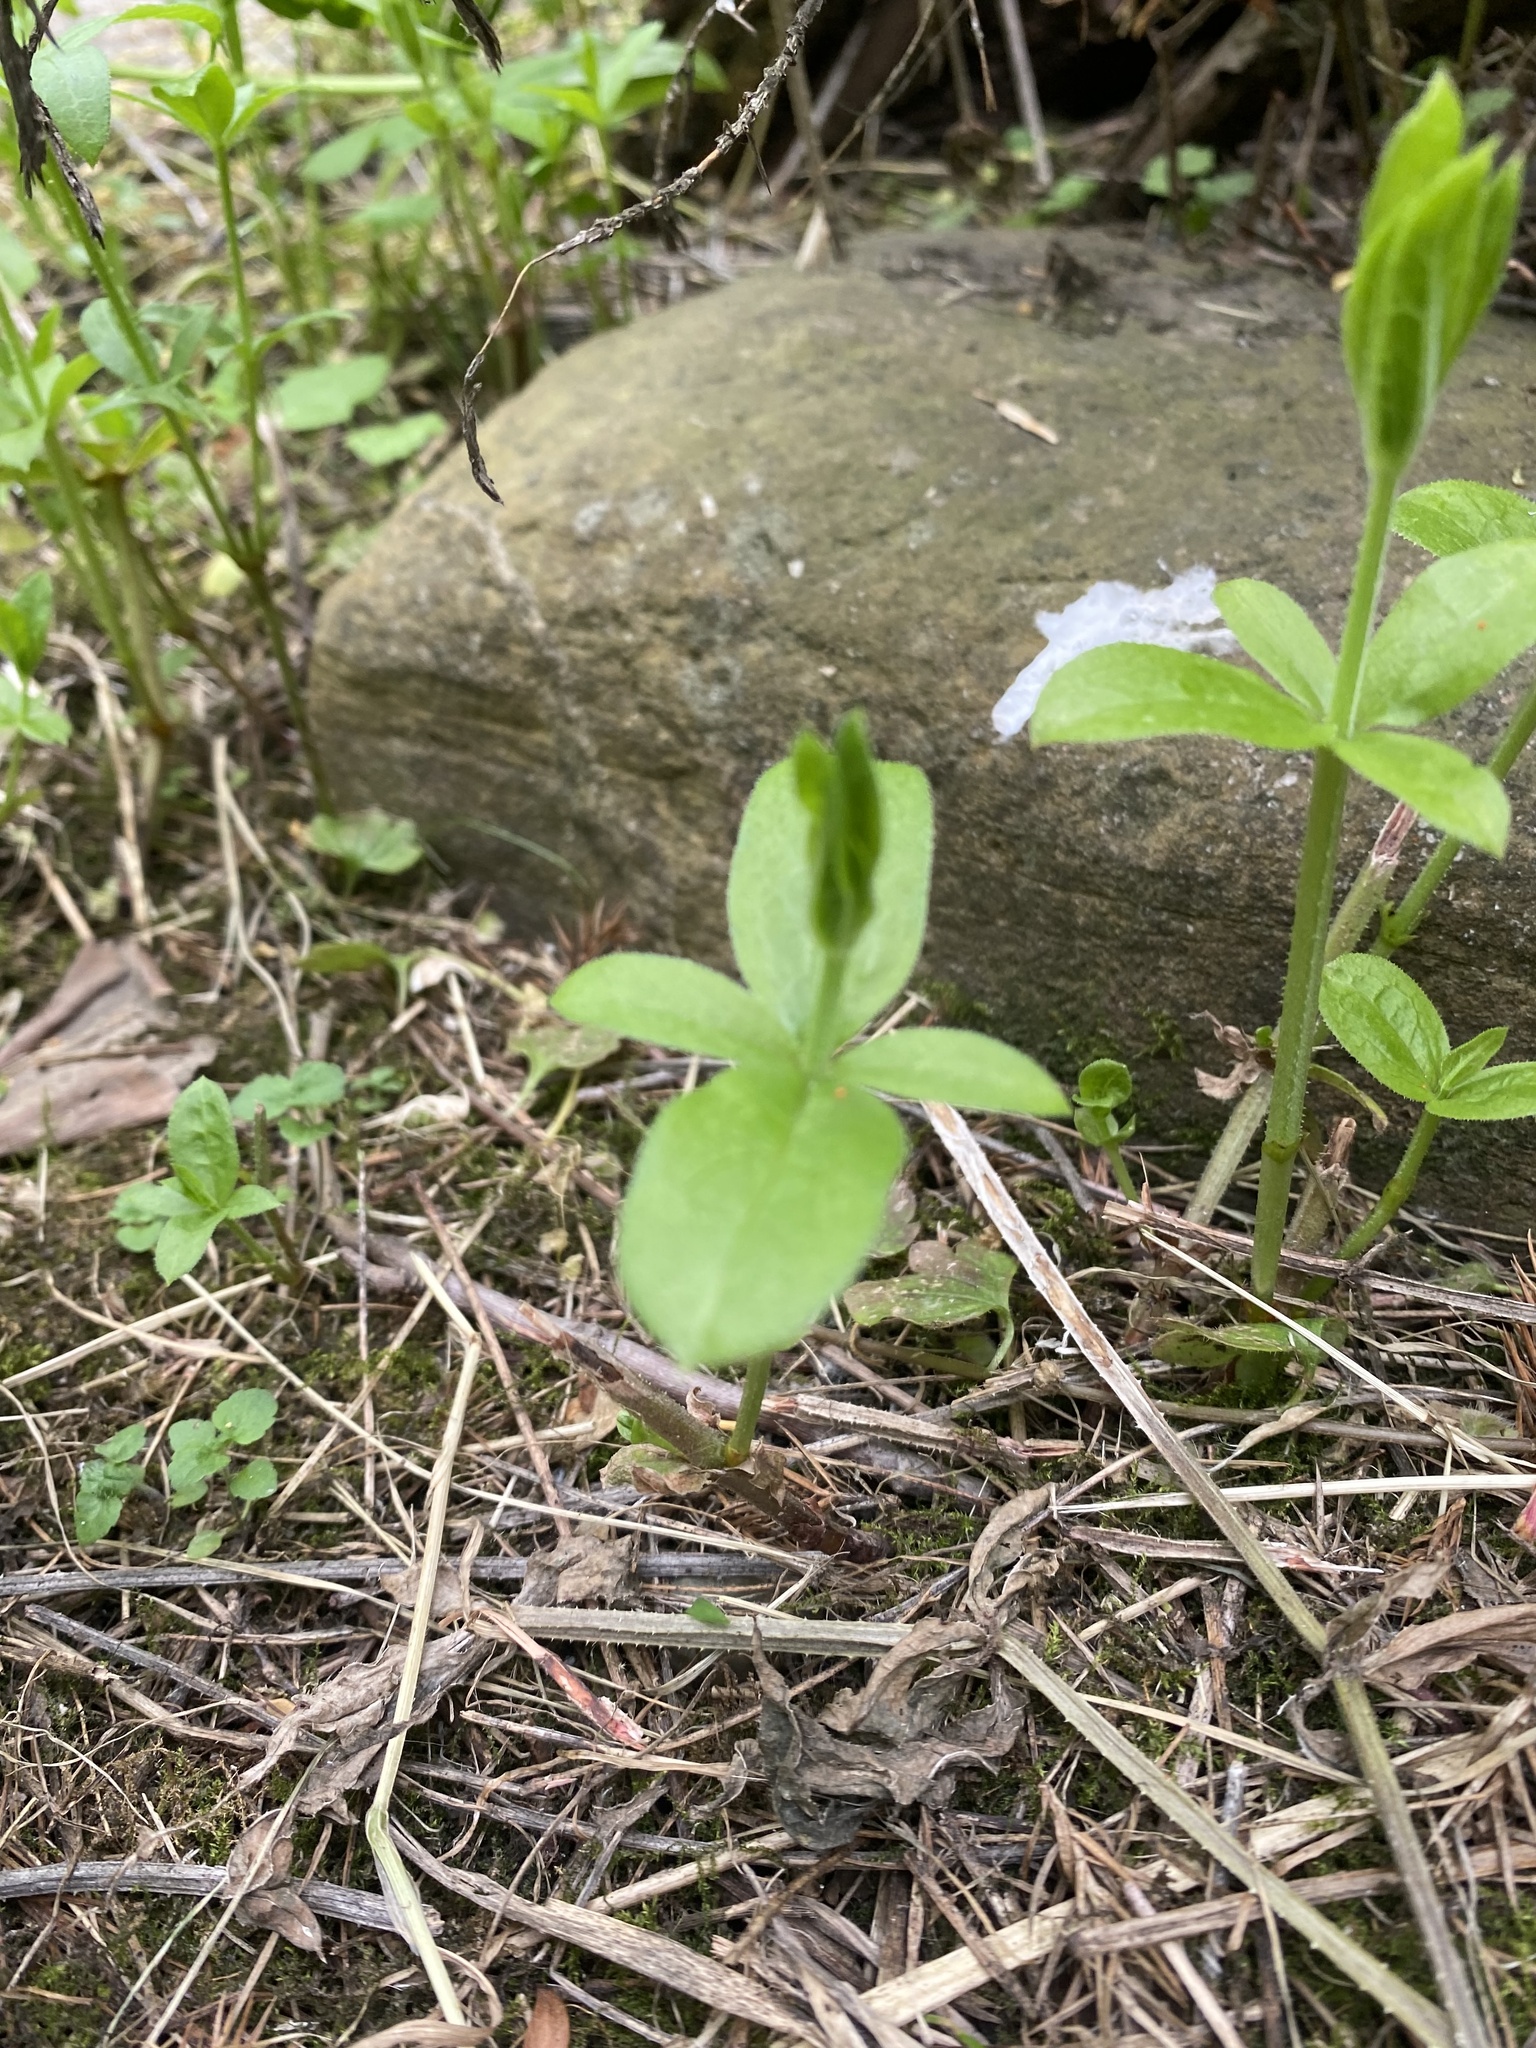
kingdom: Plantae
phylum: Tracheophyta
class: Magnoliopsida
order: Gentianales
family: Rubiaceae
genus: Rubia
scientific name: Rubia
